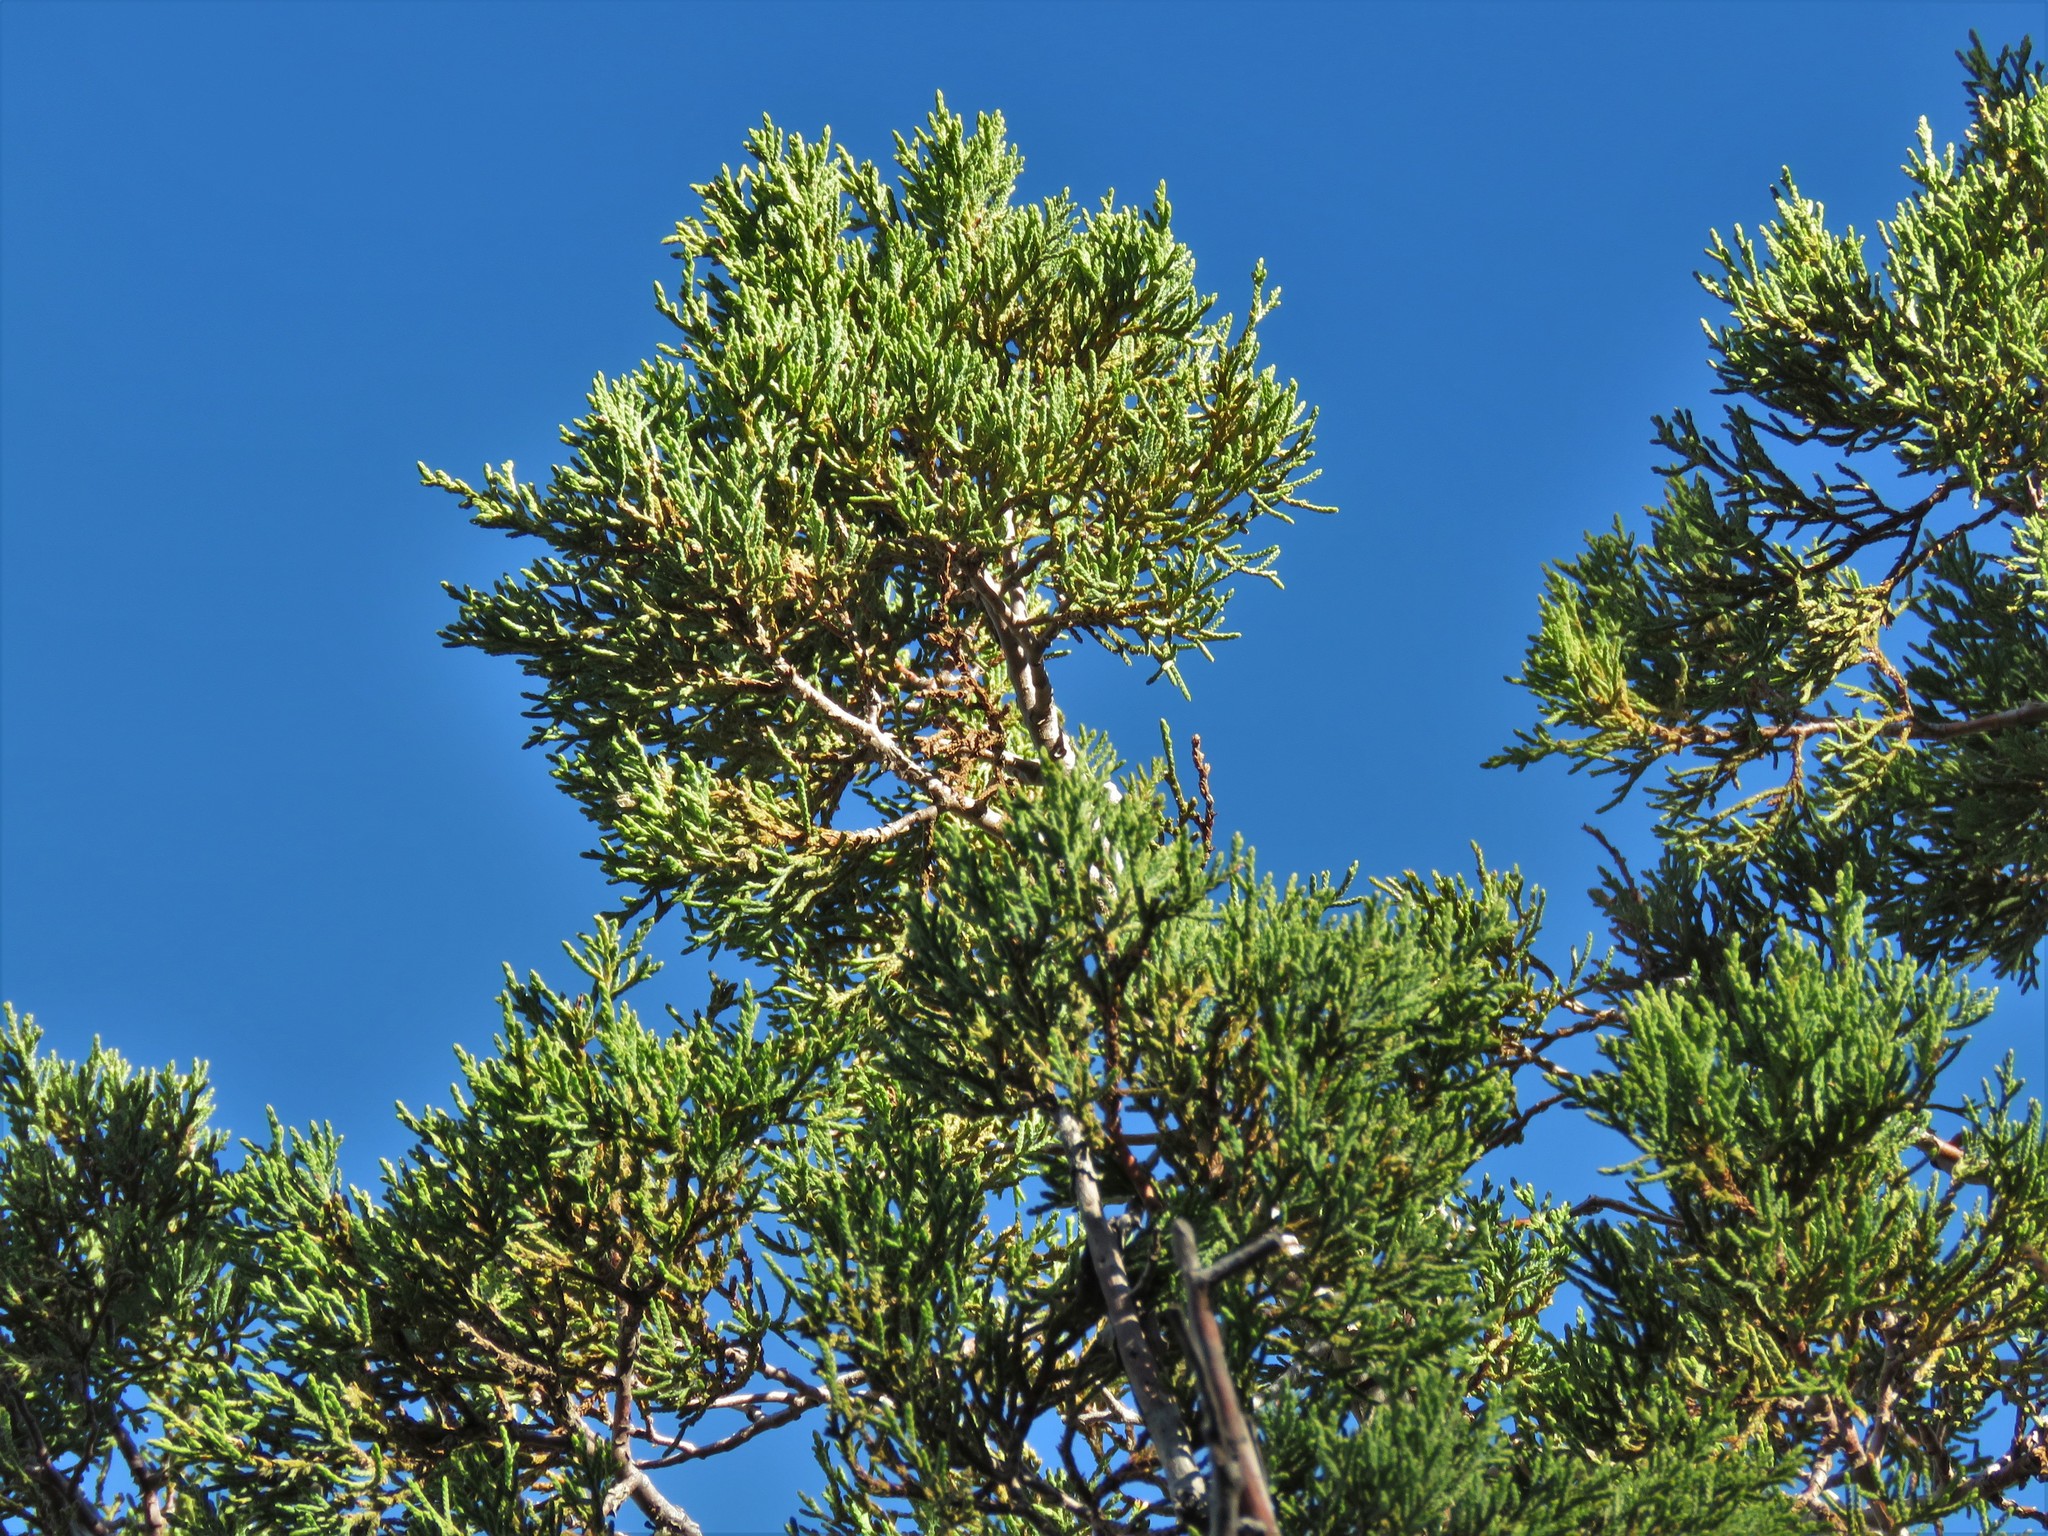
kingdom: Plantae
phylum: Tracheophyta
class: Pinopsida
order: Pinales
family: Cupressaceae
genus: Juniperus
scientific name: Juniperus deppeana
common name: Alligator juniper
